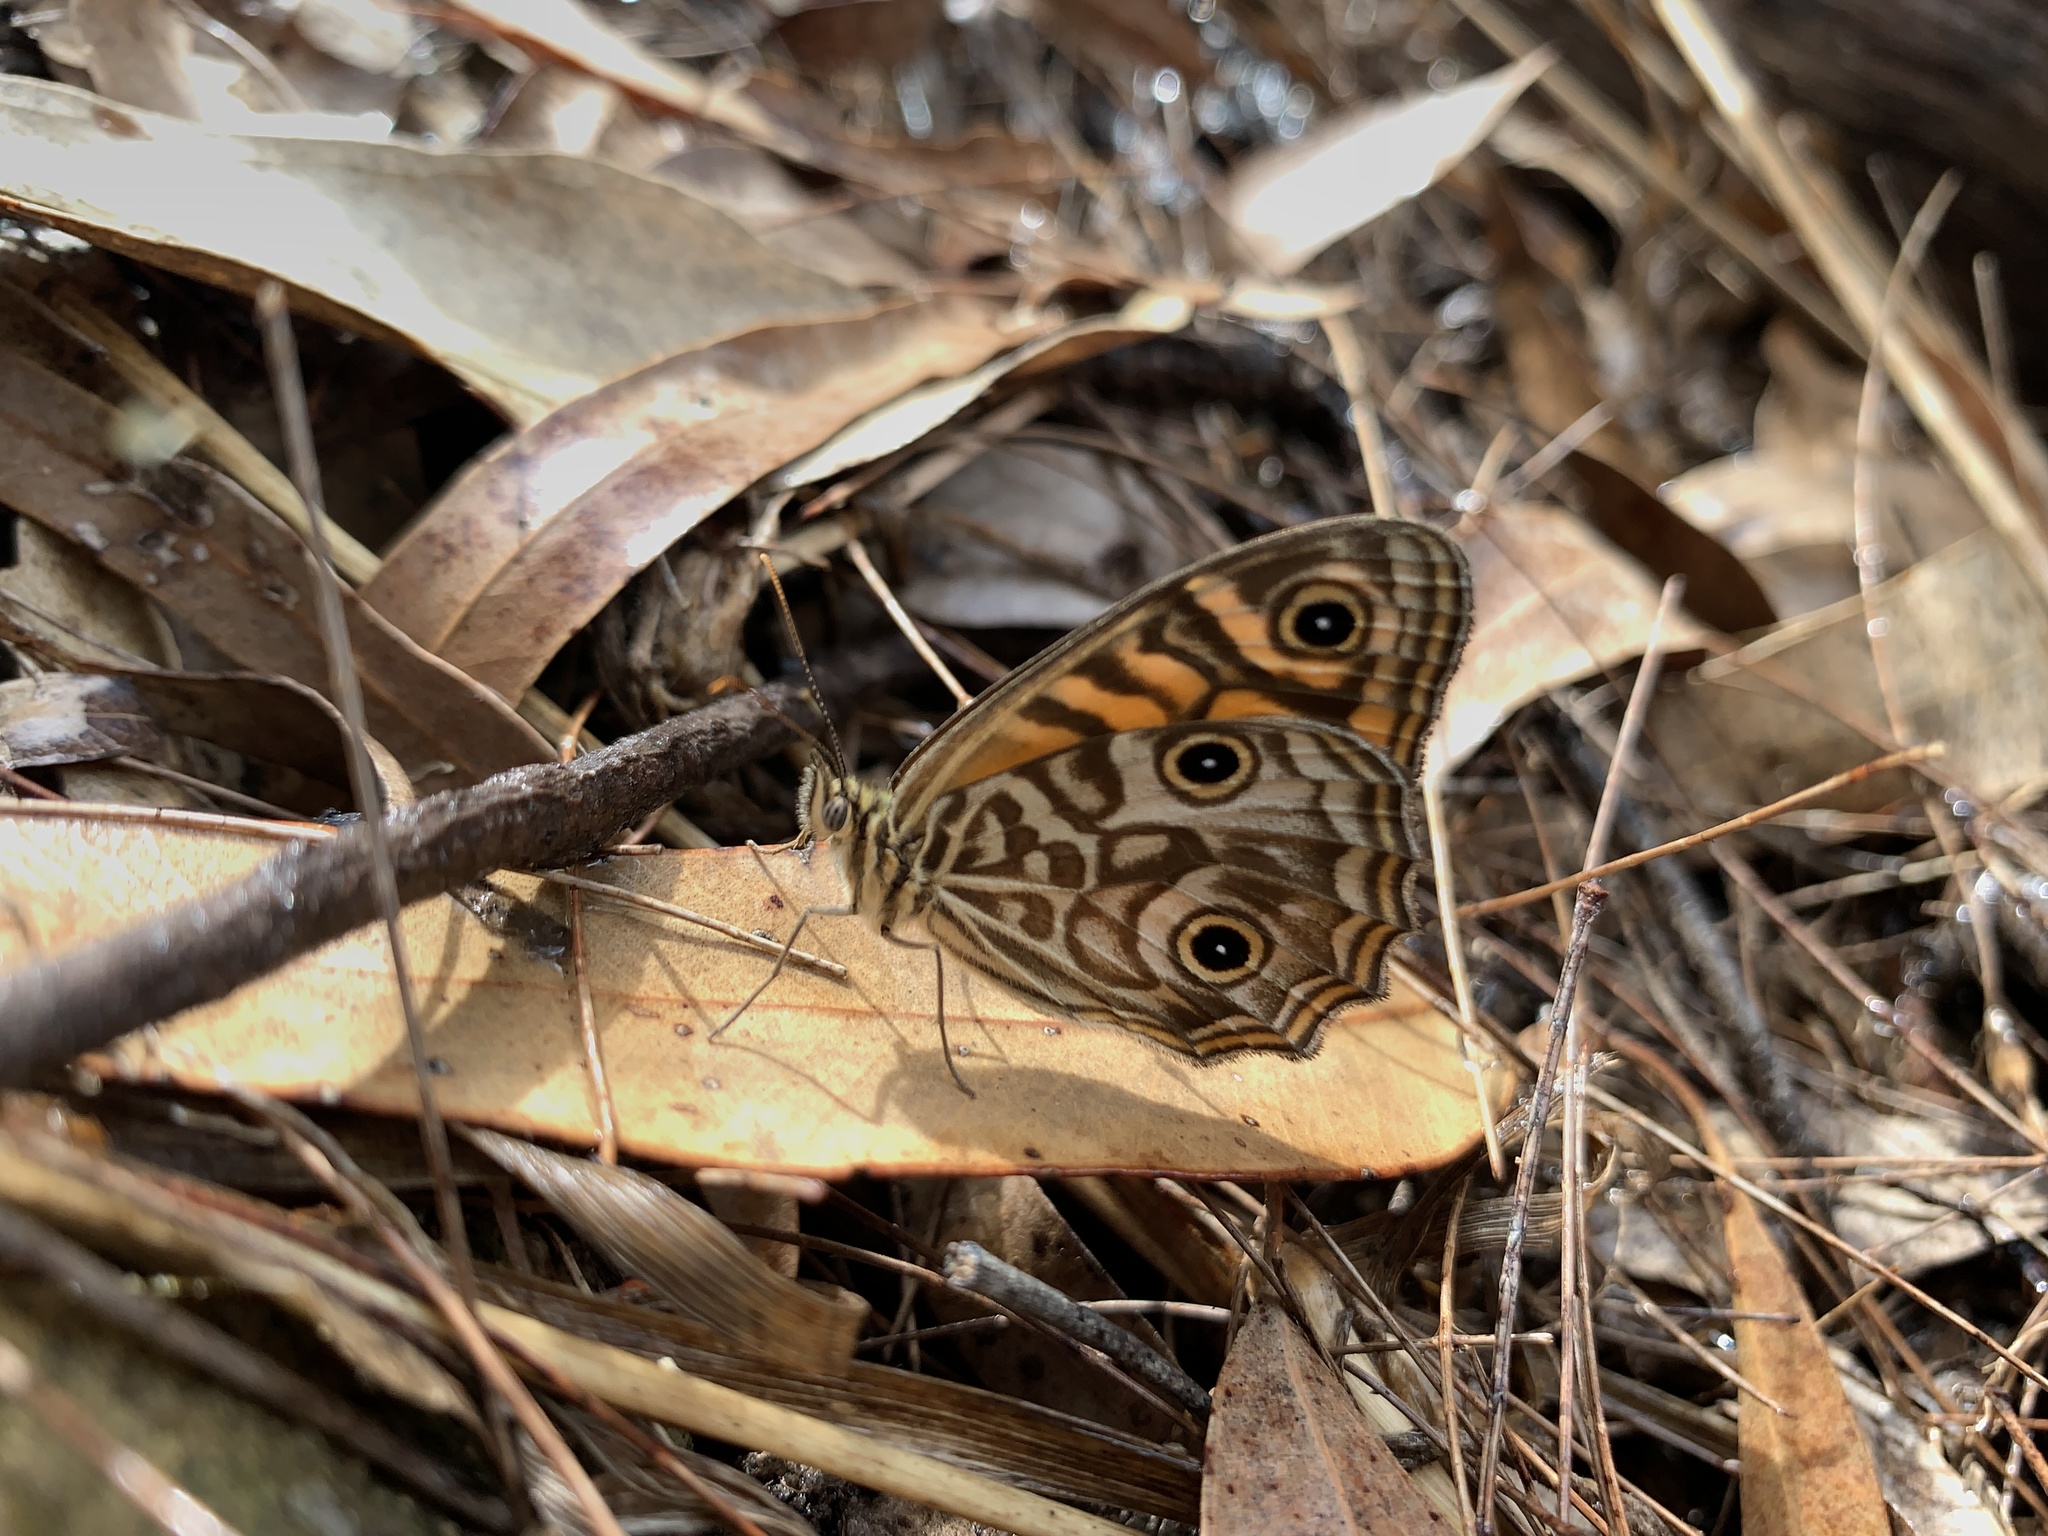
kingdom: Animalia
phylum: Arthropoda
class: Insecta
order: Lepidoptera
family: Nymphalidae
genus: Geitoneura
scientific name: Geitoneura acantha
